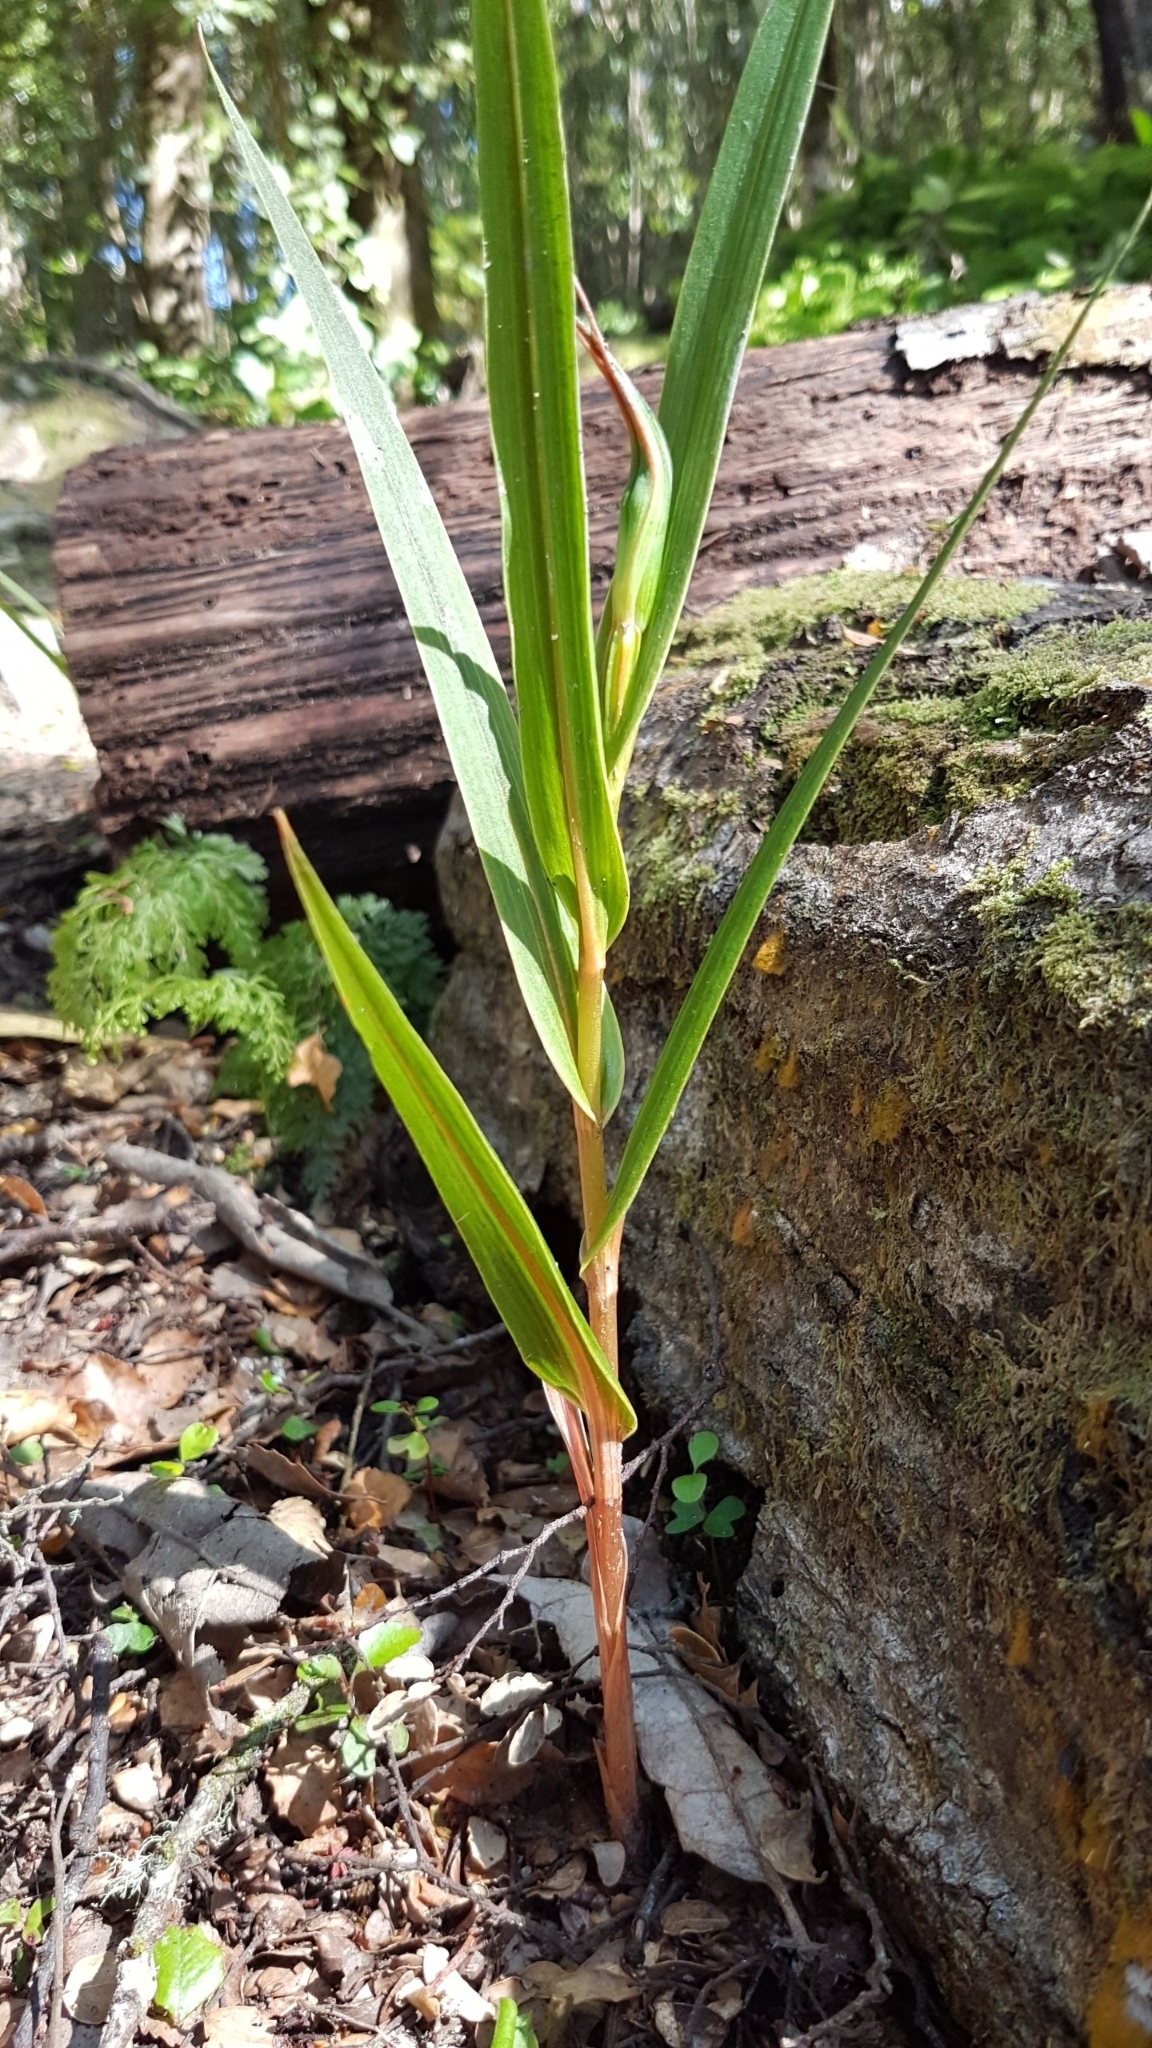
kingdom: Plantae
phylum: Tracheophyta
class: Liliopsida
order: Asparagales
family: Orchidaceae
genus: Pterostylis
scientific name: Pterostylis cardiostigma
